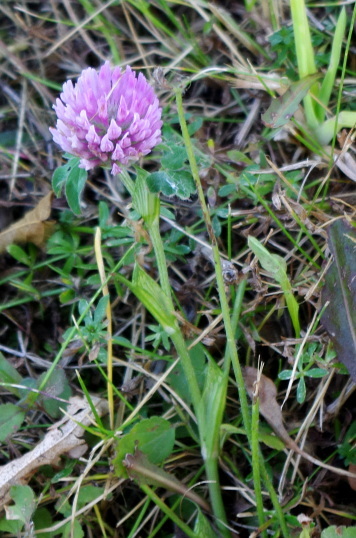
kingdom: Plantae
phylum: Tracheophyta
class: Magnoliopsida
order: Fabales
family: Fabaceae
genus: Trifolium
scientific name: Trifolium pratense
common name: Red clover
